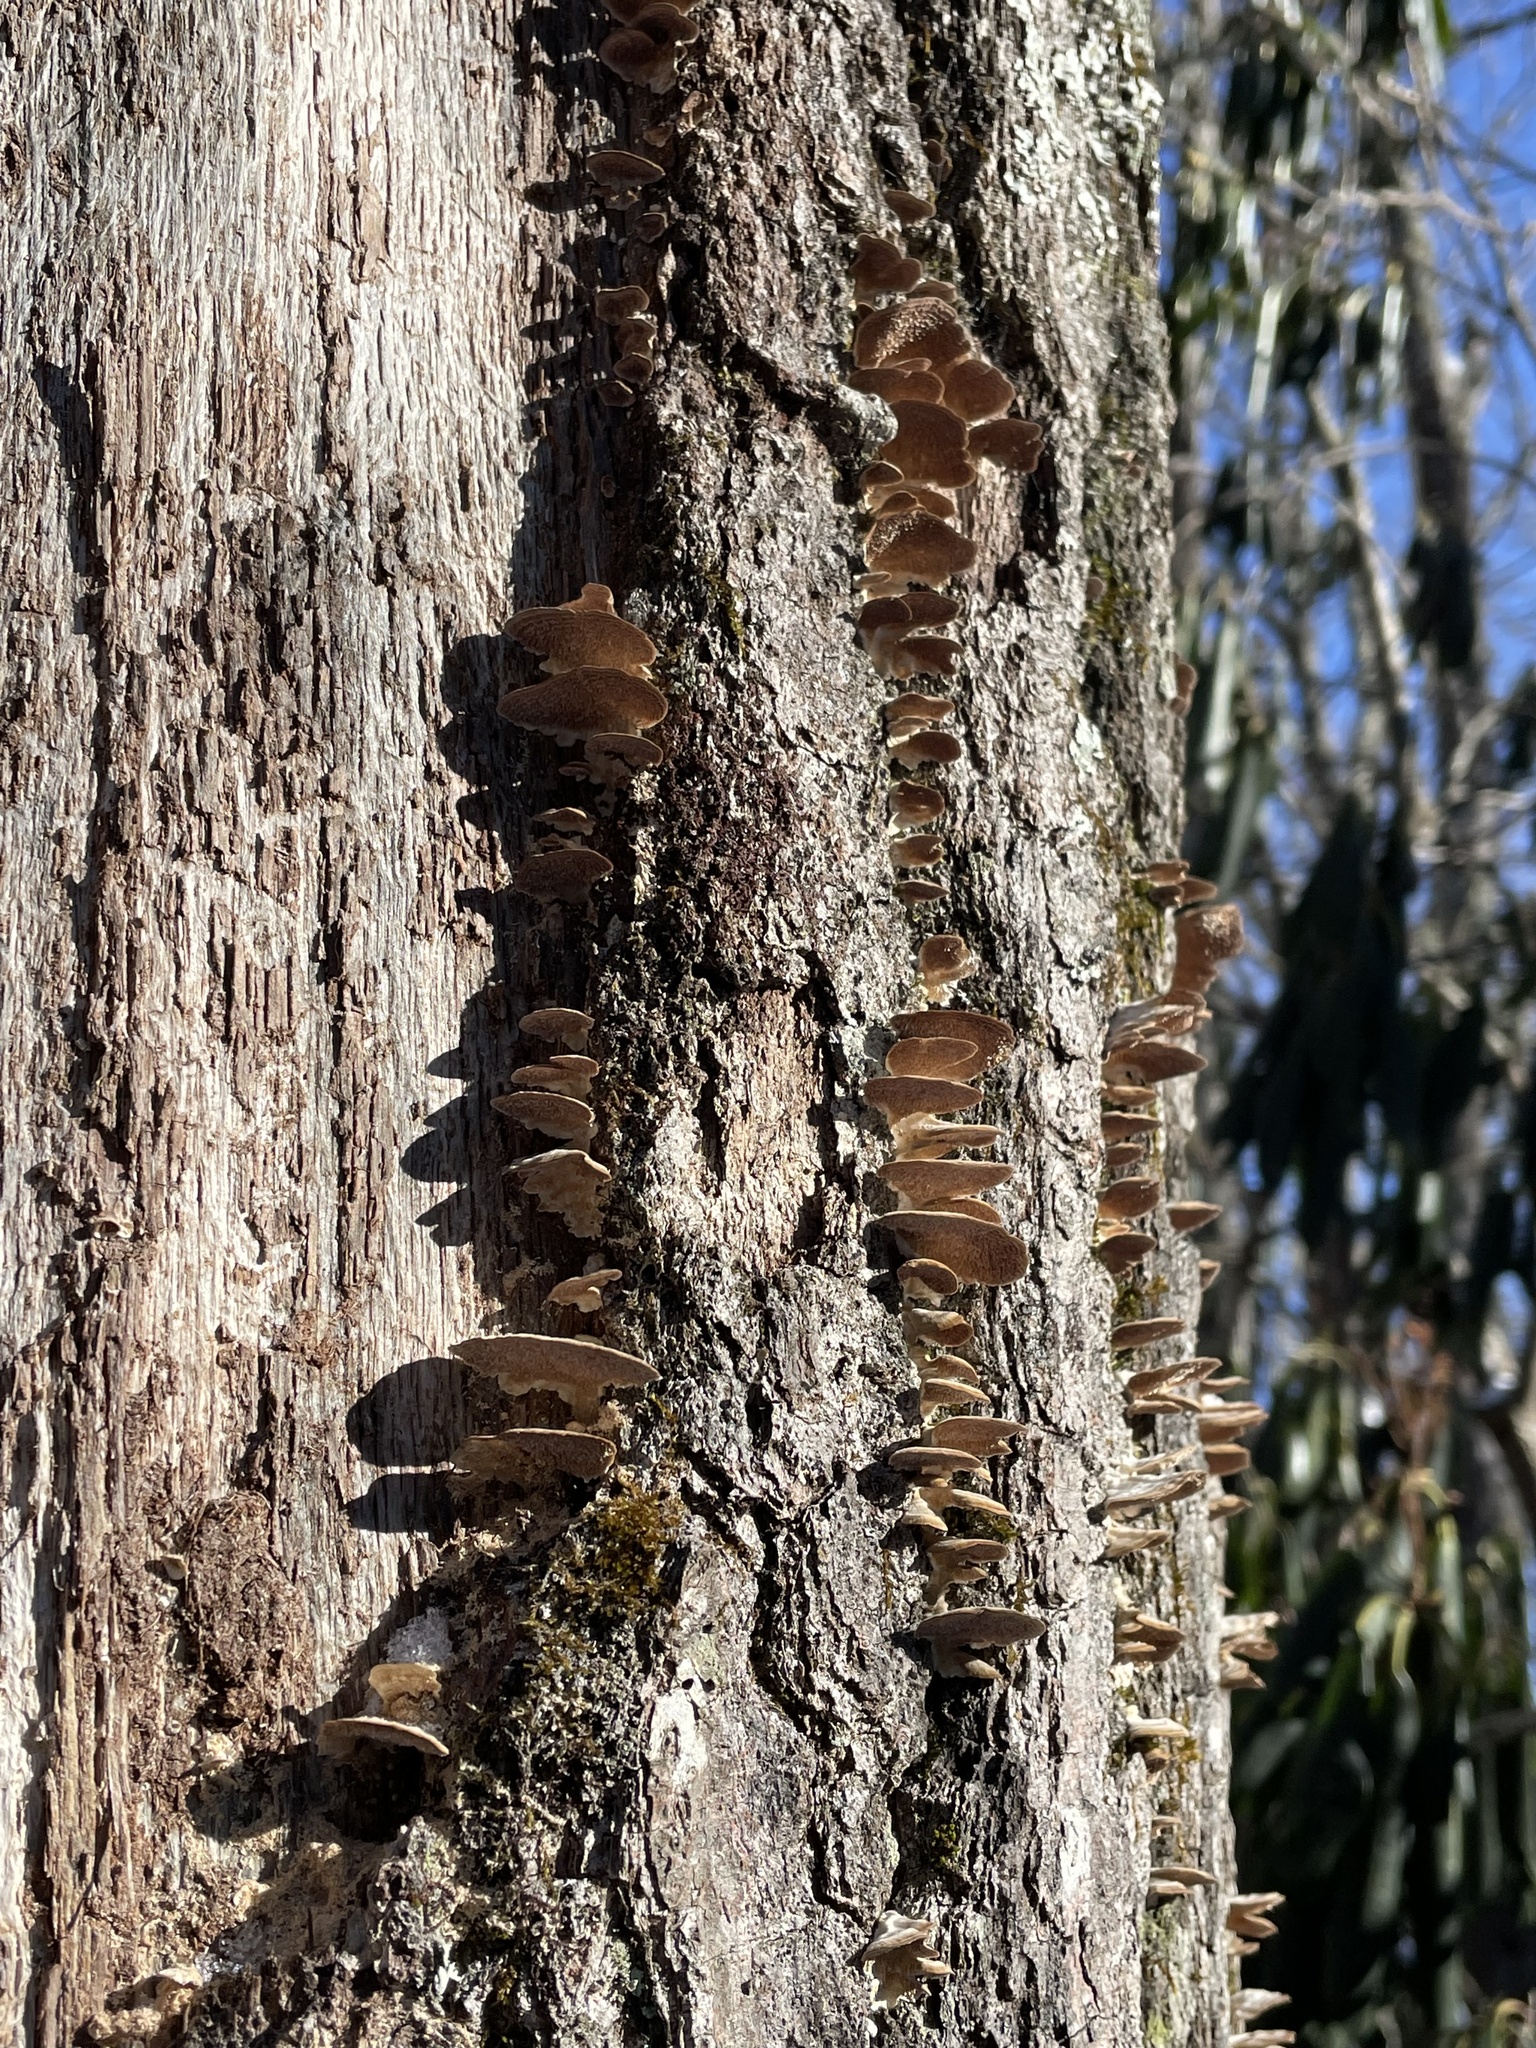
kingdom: Fungi
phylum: Basidiomycota
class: Agaricomycetes
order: Hymenochaetales
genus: Trichaptum
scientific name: Trichaptum biforme
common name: Violet-toothed polypore
